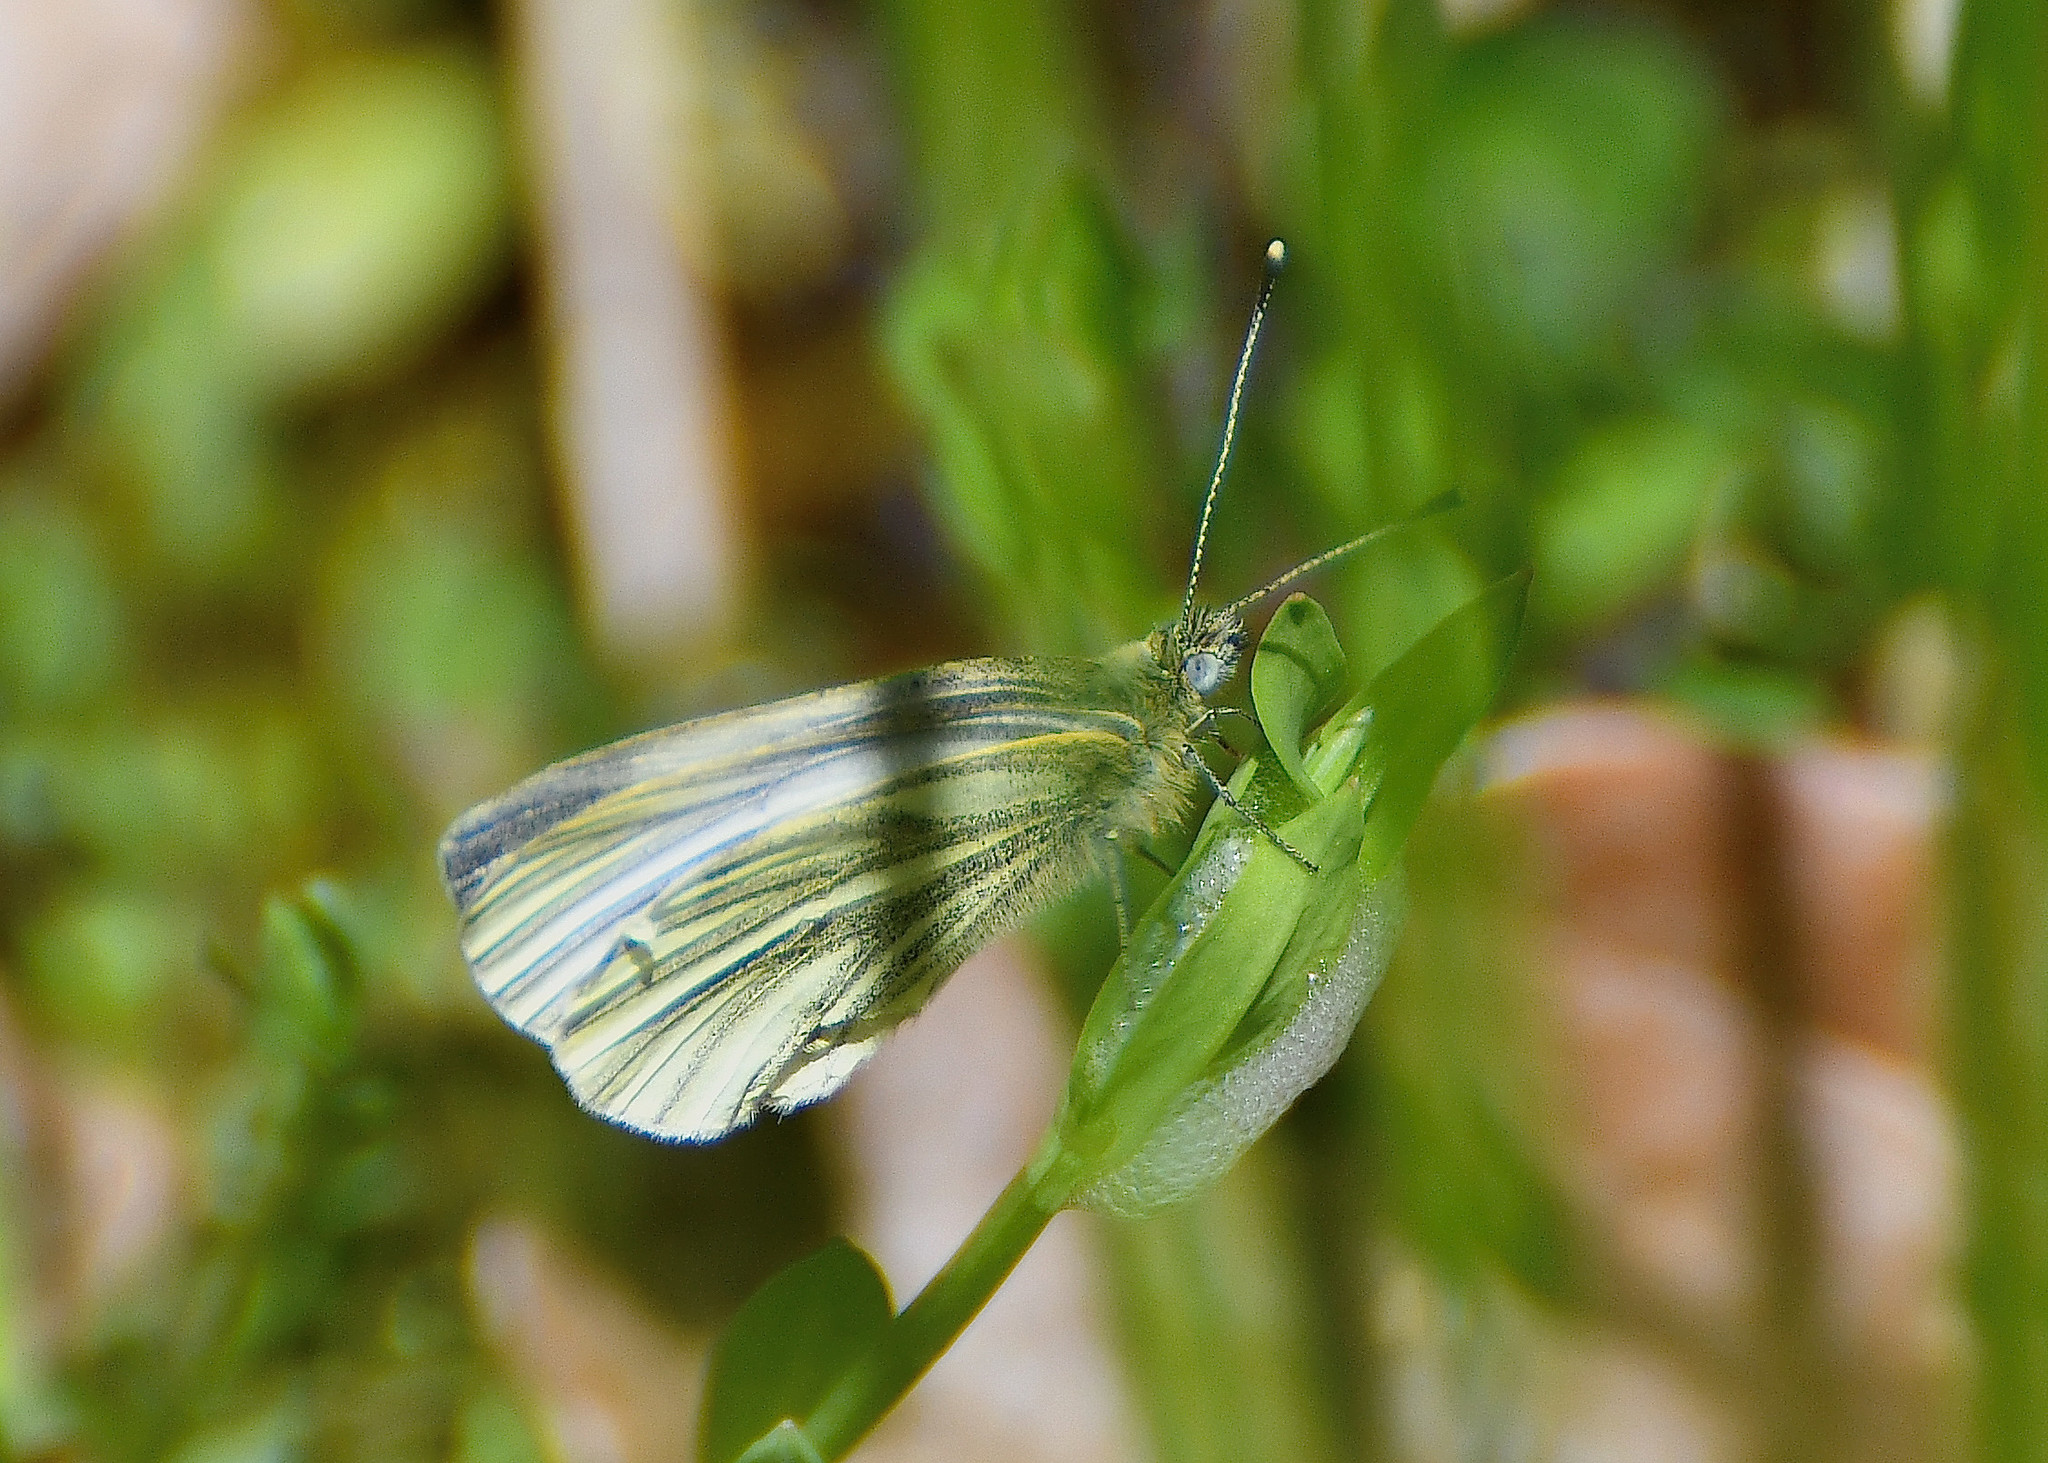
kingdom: Animalia
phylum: Arthropoda
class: Insecta
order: Lepidoptera
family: Pieridae
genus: Pieris
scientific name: Pieris napi
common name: Green-veined white
